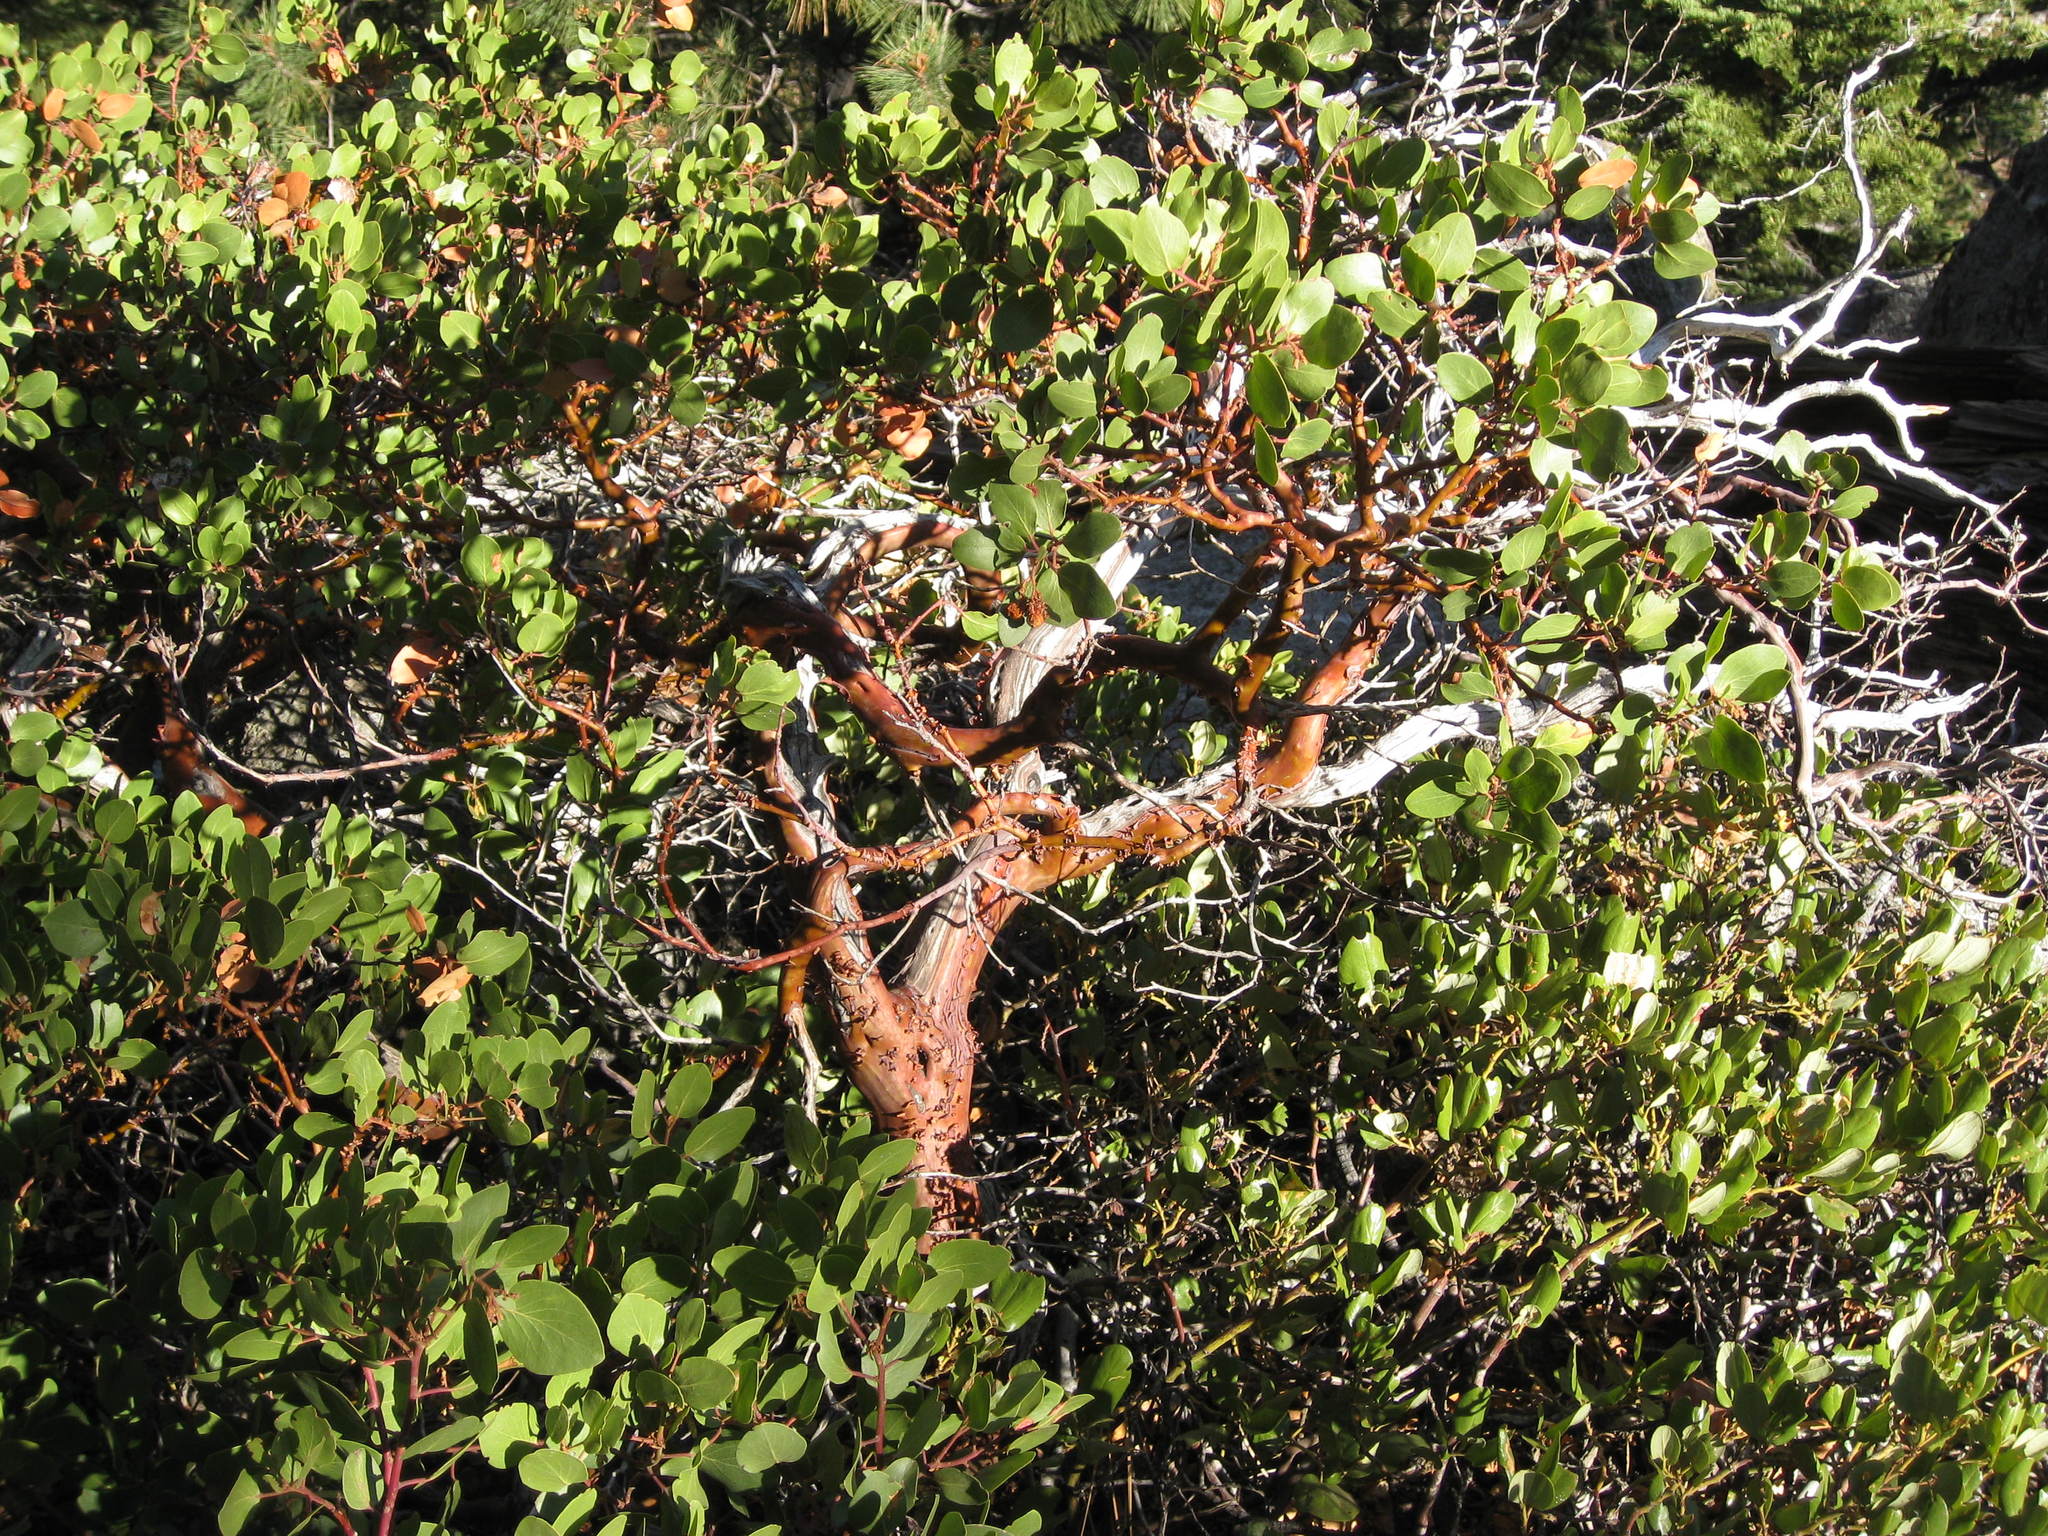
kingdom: Plantae
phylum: Tracheophyta
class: Magnoliopsida
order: Ericales
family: Ericaceae
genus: Arctostaphylos
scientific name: Arctostaphylos patula
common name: Green-leaf manzanita
